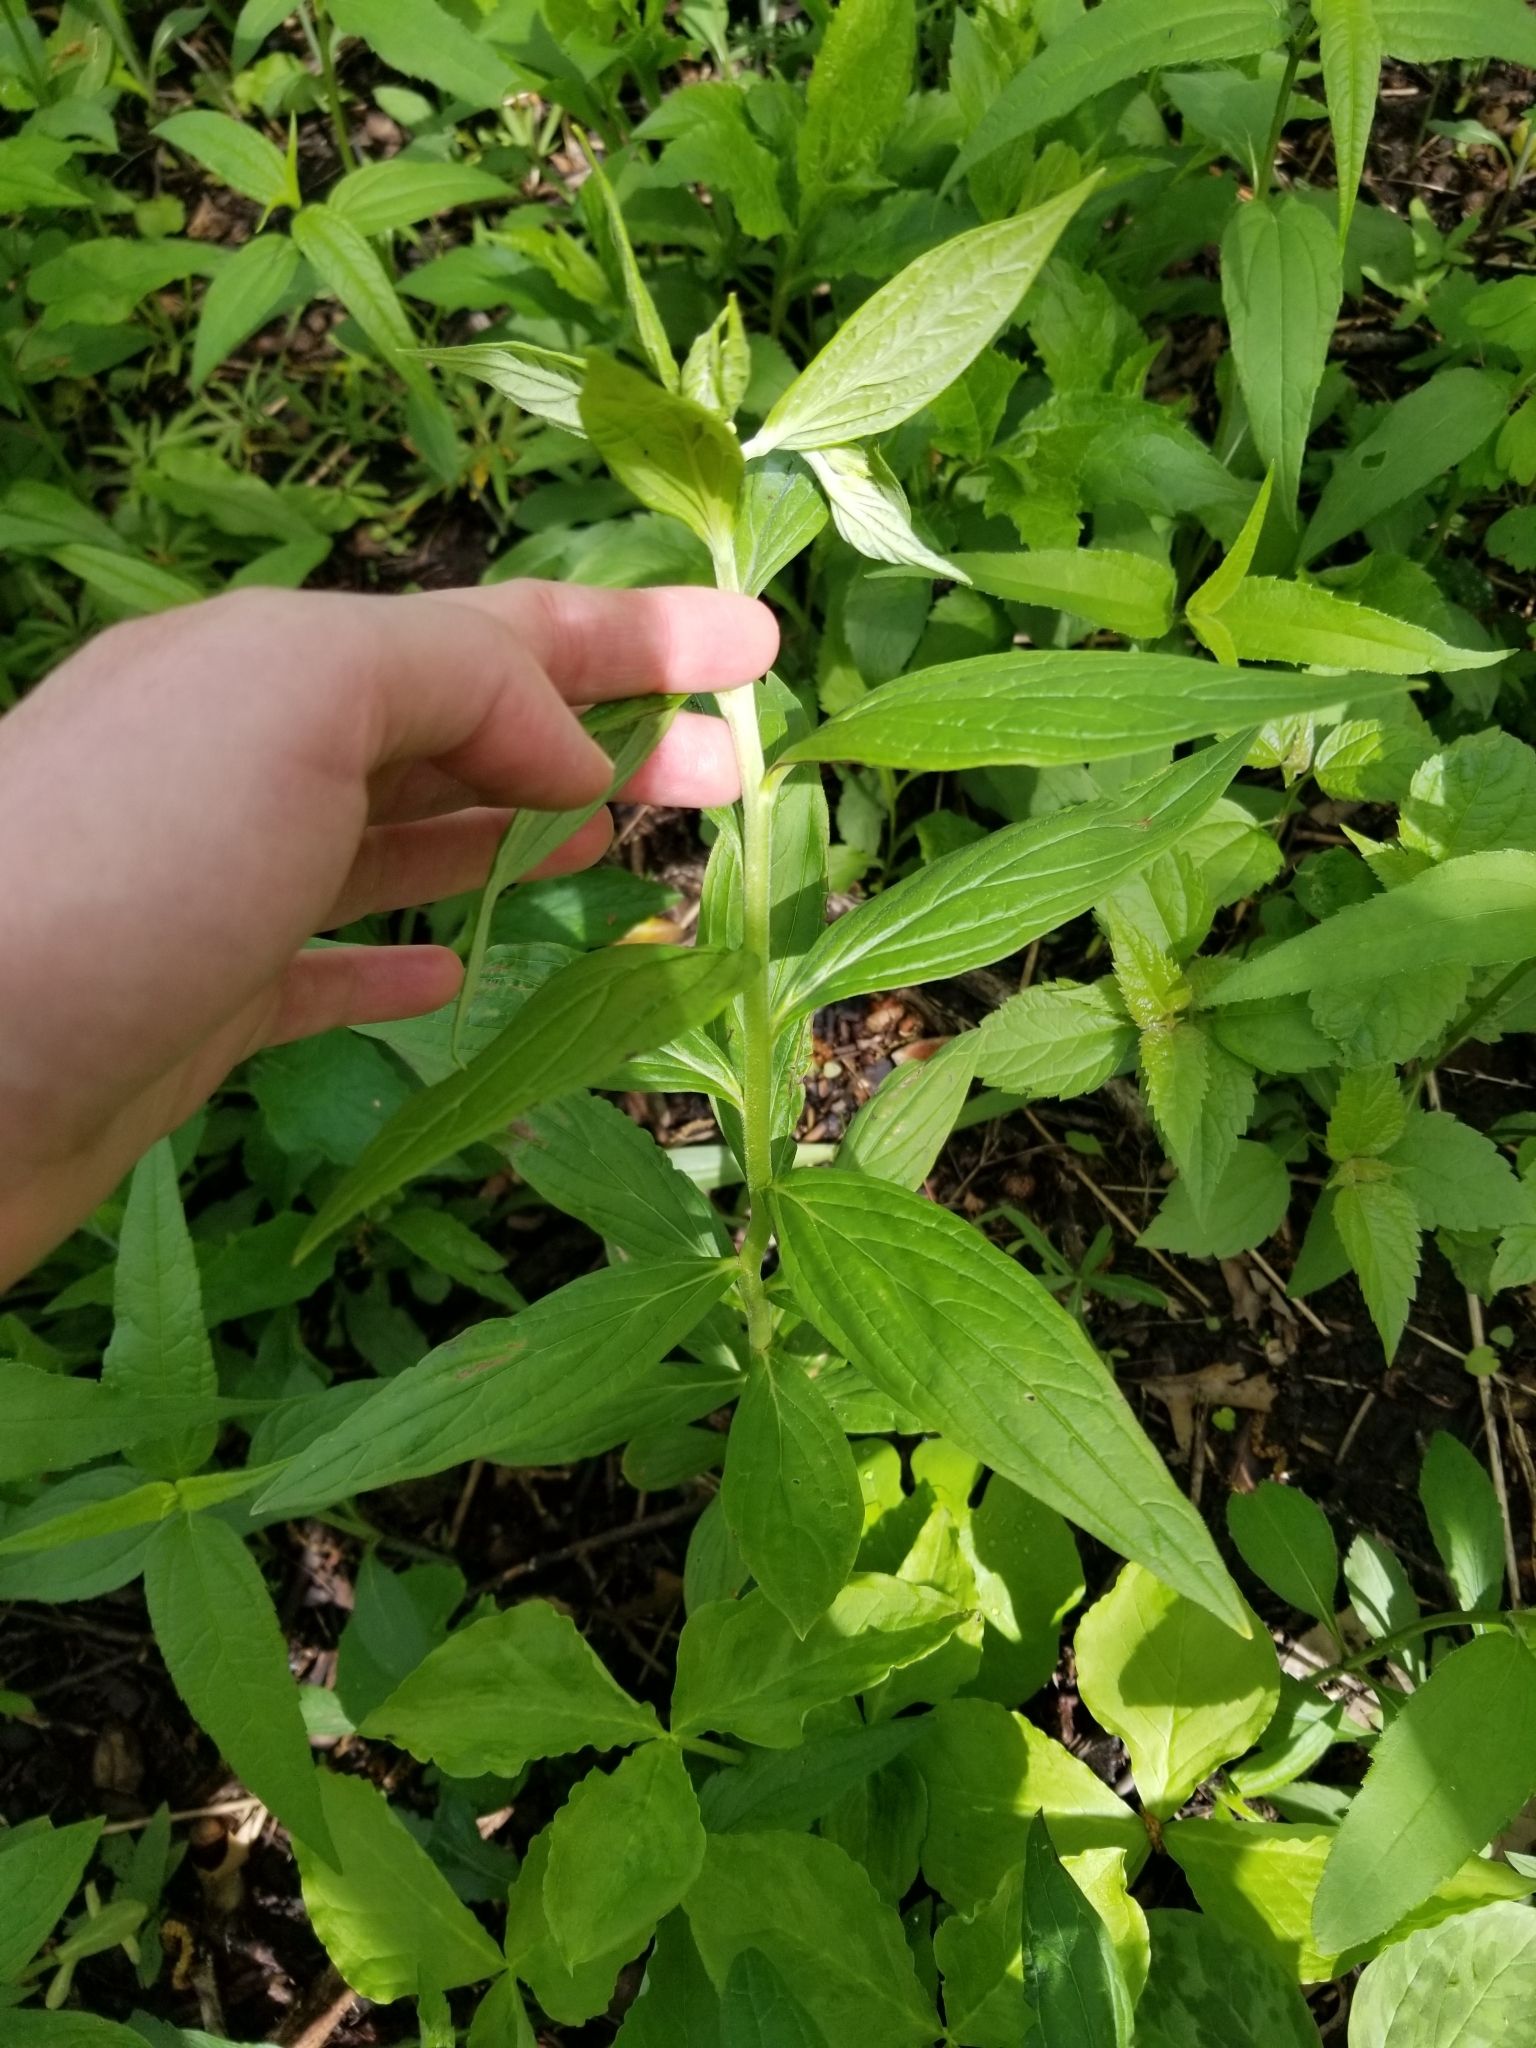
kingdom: Plantae
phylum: Tracheophyta
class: Magnoliopsida
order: Boraginales
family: Boraginaceae
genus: Lithospermum
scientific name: Lithospermum latifolium
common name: American gromwell
